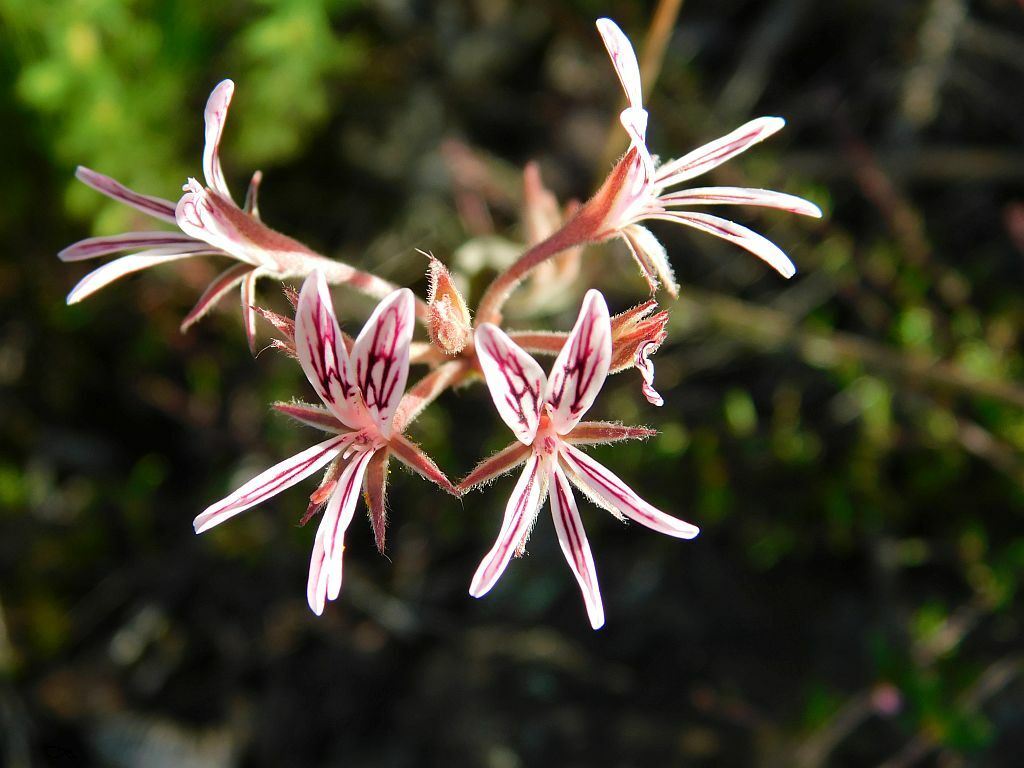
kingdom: Plantae
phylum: Tracheophyta
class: Magnoliopsida
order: Geraniales
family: Geraniaceae
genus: Pelargonium
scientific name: Pelargonium caledonicum
